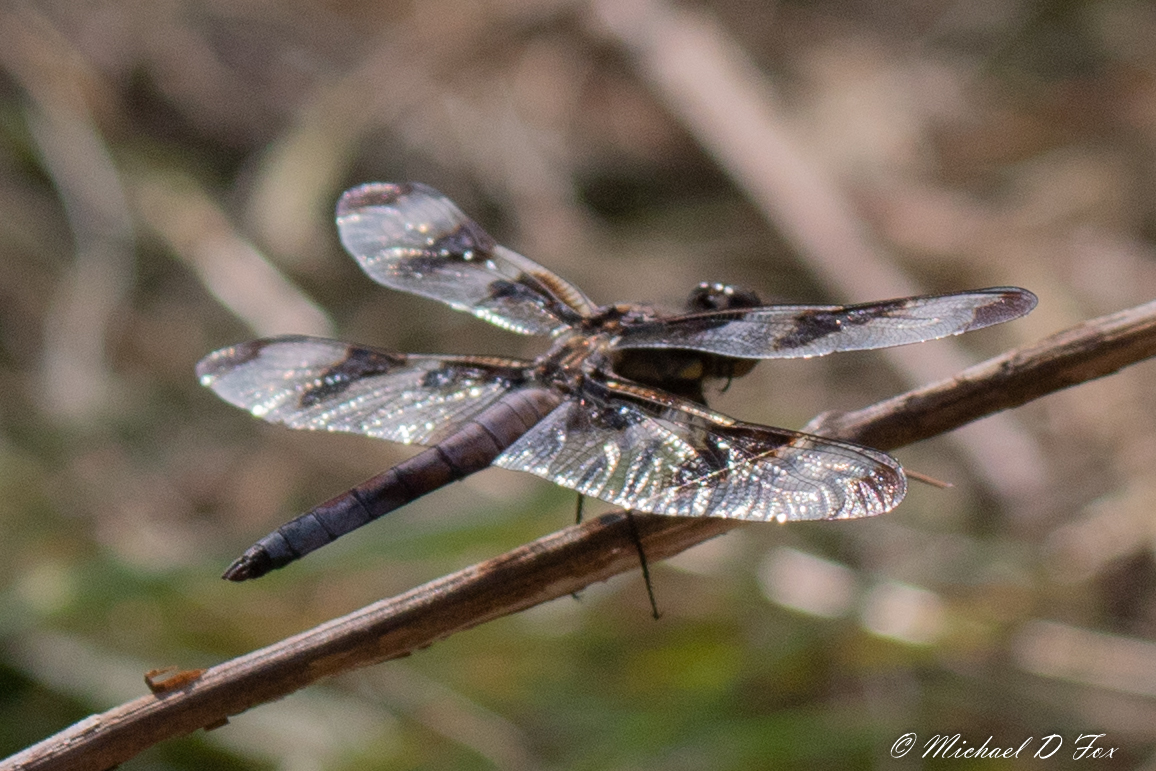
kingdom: Animalia
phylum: Arthropoda
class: Insecta
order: Odonata
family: Libellulidae
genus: Libellula
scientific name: Libellula pulchella
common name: Twelve-spotted skimmer
